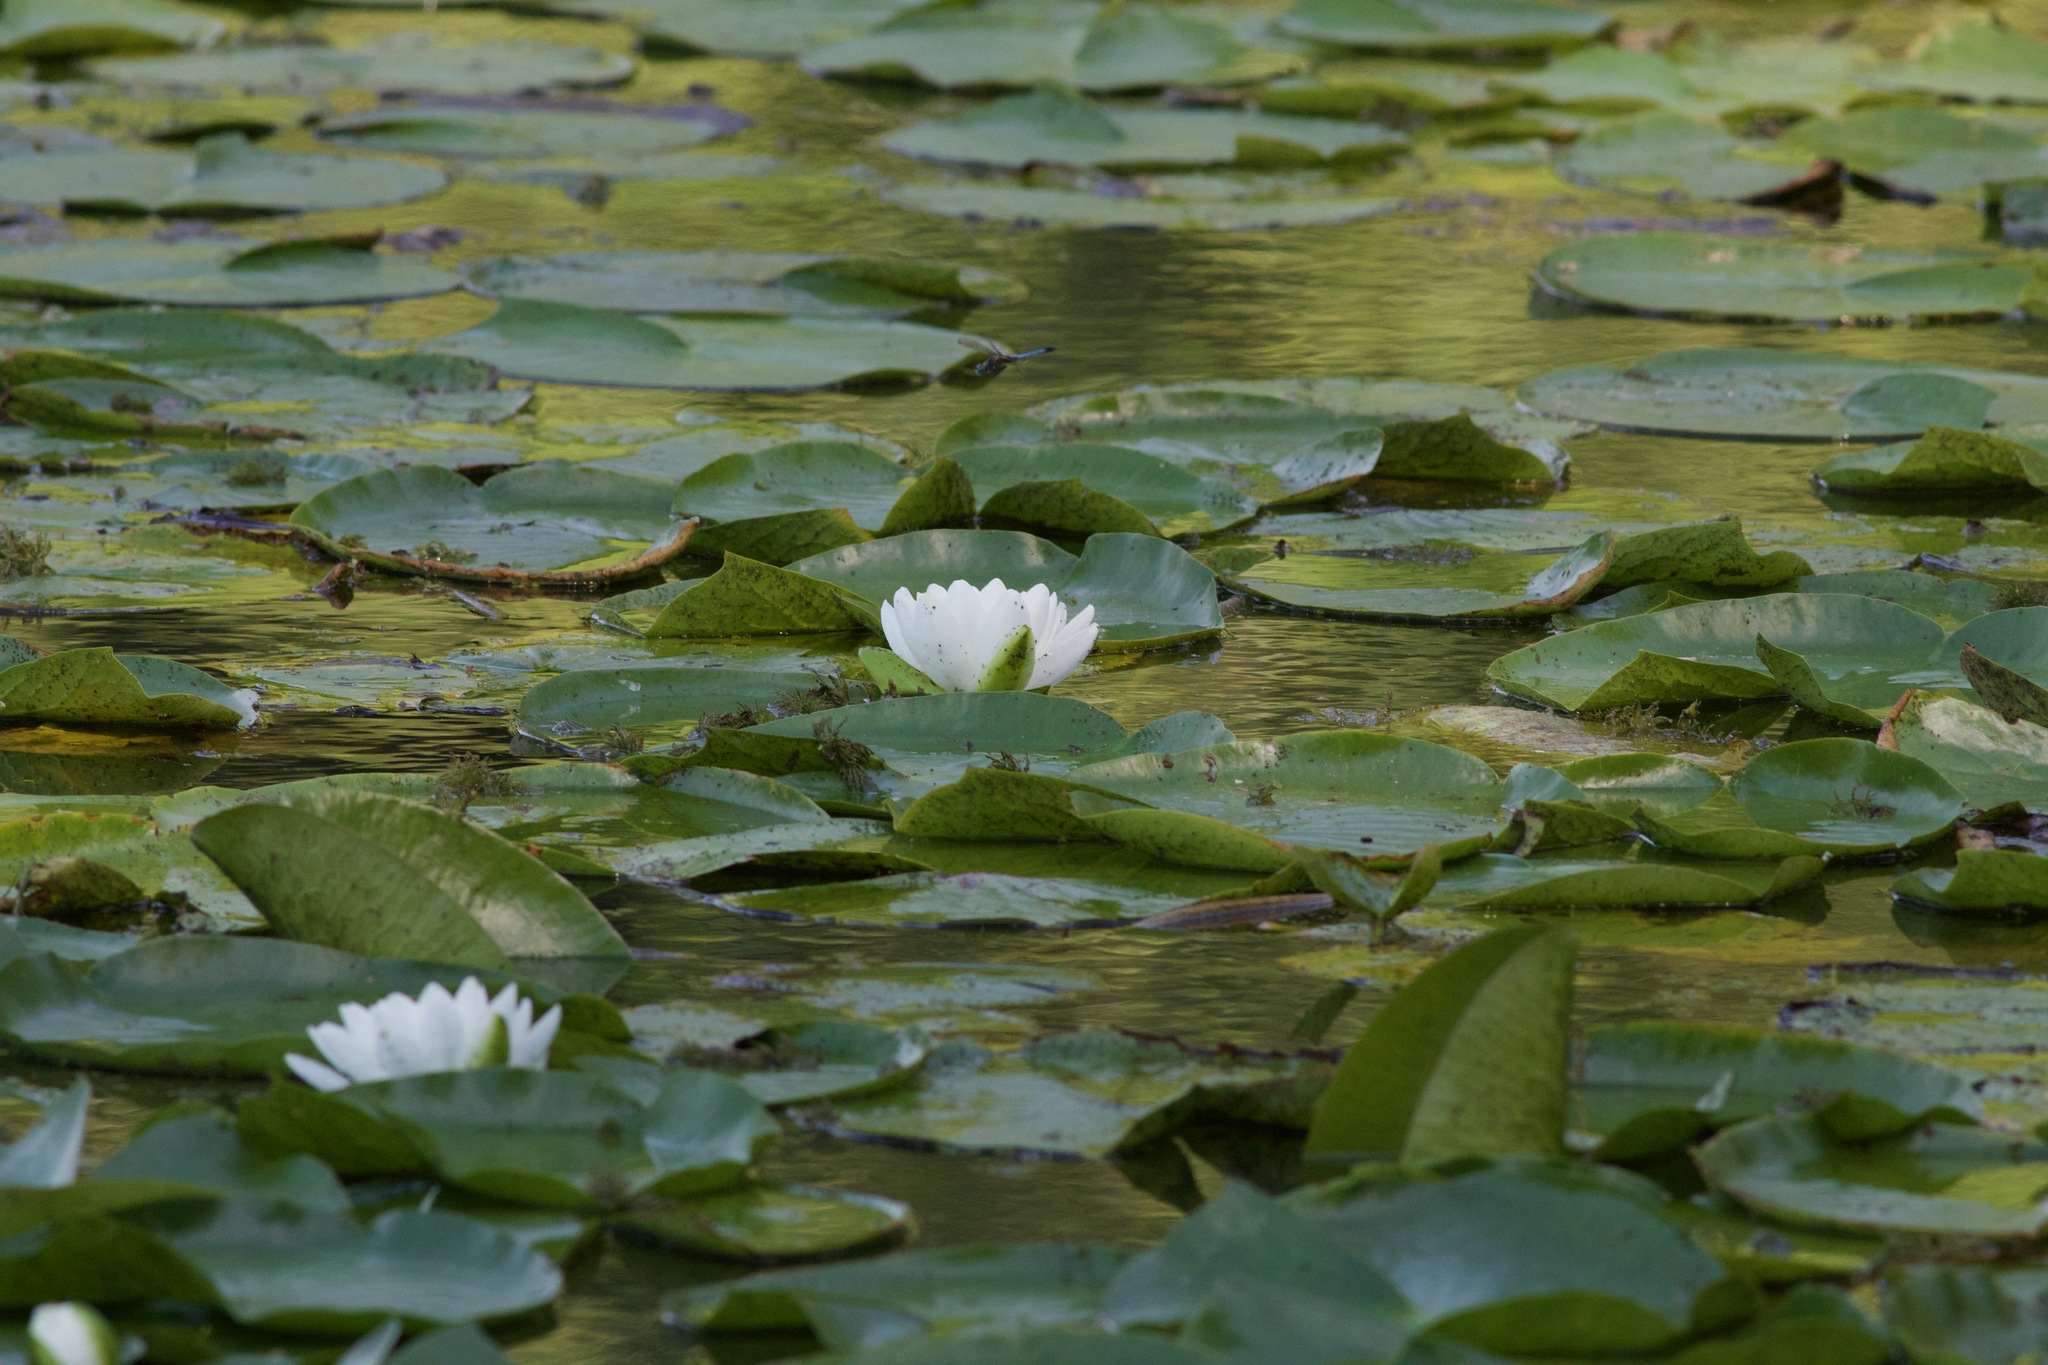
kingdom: Plantae
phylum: Tracheophyta
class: Magnoliopsida
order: Nymphaeales
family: Nymphaeaceae
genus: Nymphaea
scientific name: Nymphaea odorata
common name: Fragrant water-lily
